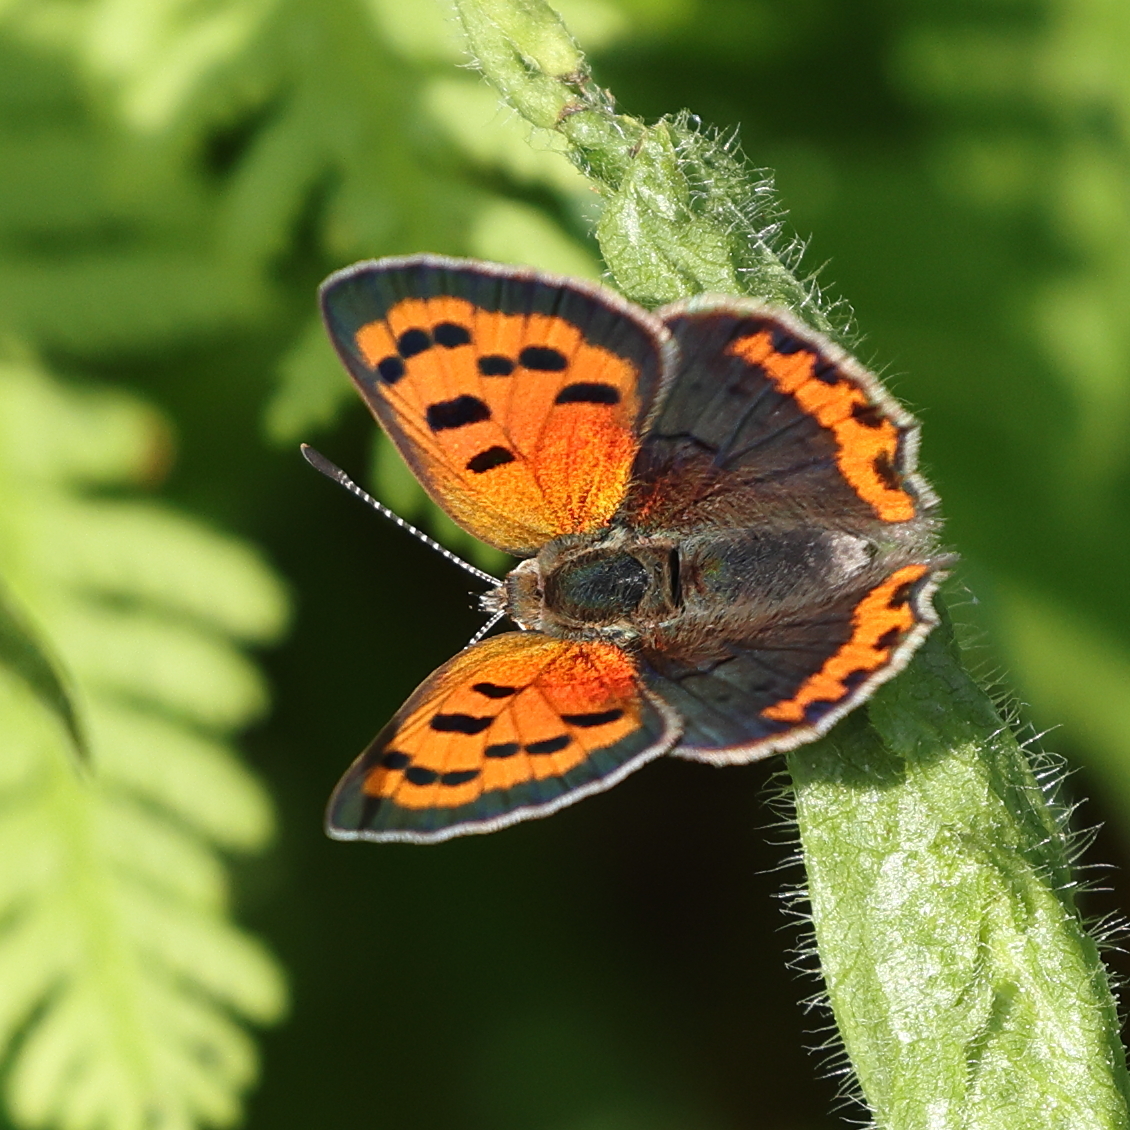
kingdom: Animalia
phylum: Arthropoda
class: Insecta
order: Lepidoptera
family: Lycaenidae
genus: Lycaena
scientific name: Lycaena hypophlaeas
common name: American copper
